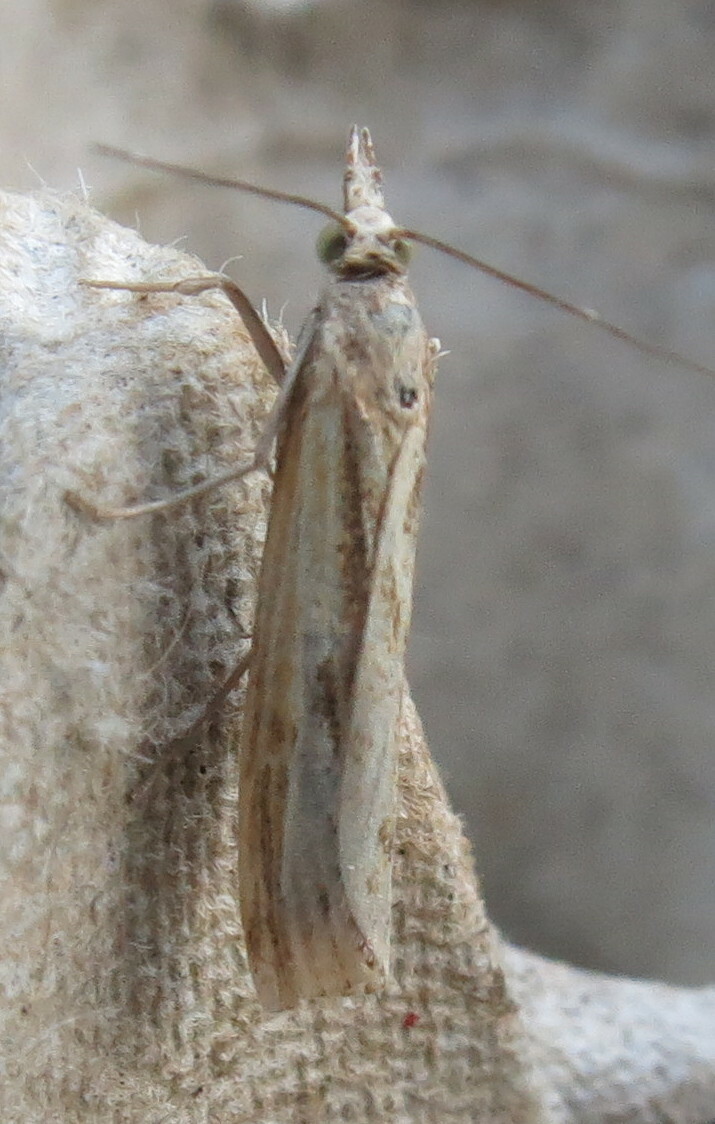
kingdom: Animalia
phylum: Arthropoda
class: Insecta
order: Lepidoptera
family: Crambidae
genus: Agriphila
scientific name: Agriphila inquinatella
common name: Barred grass-veneer
